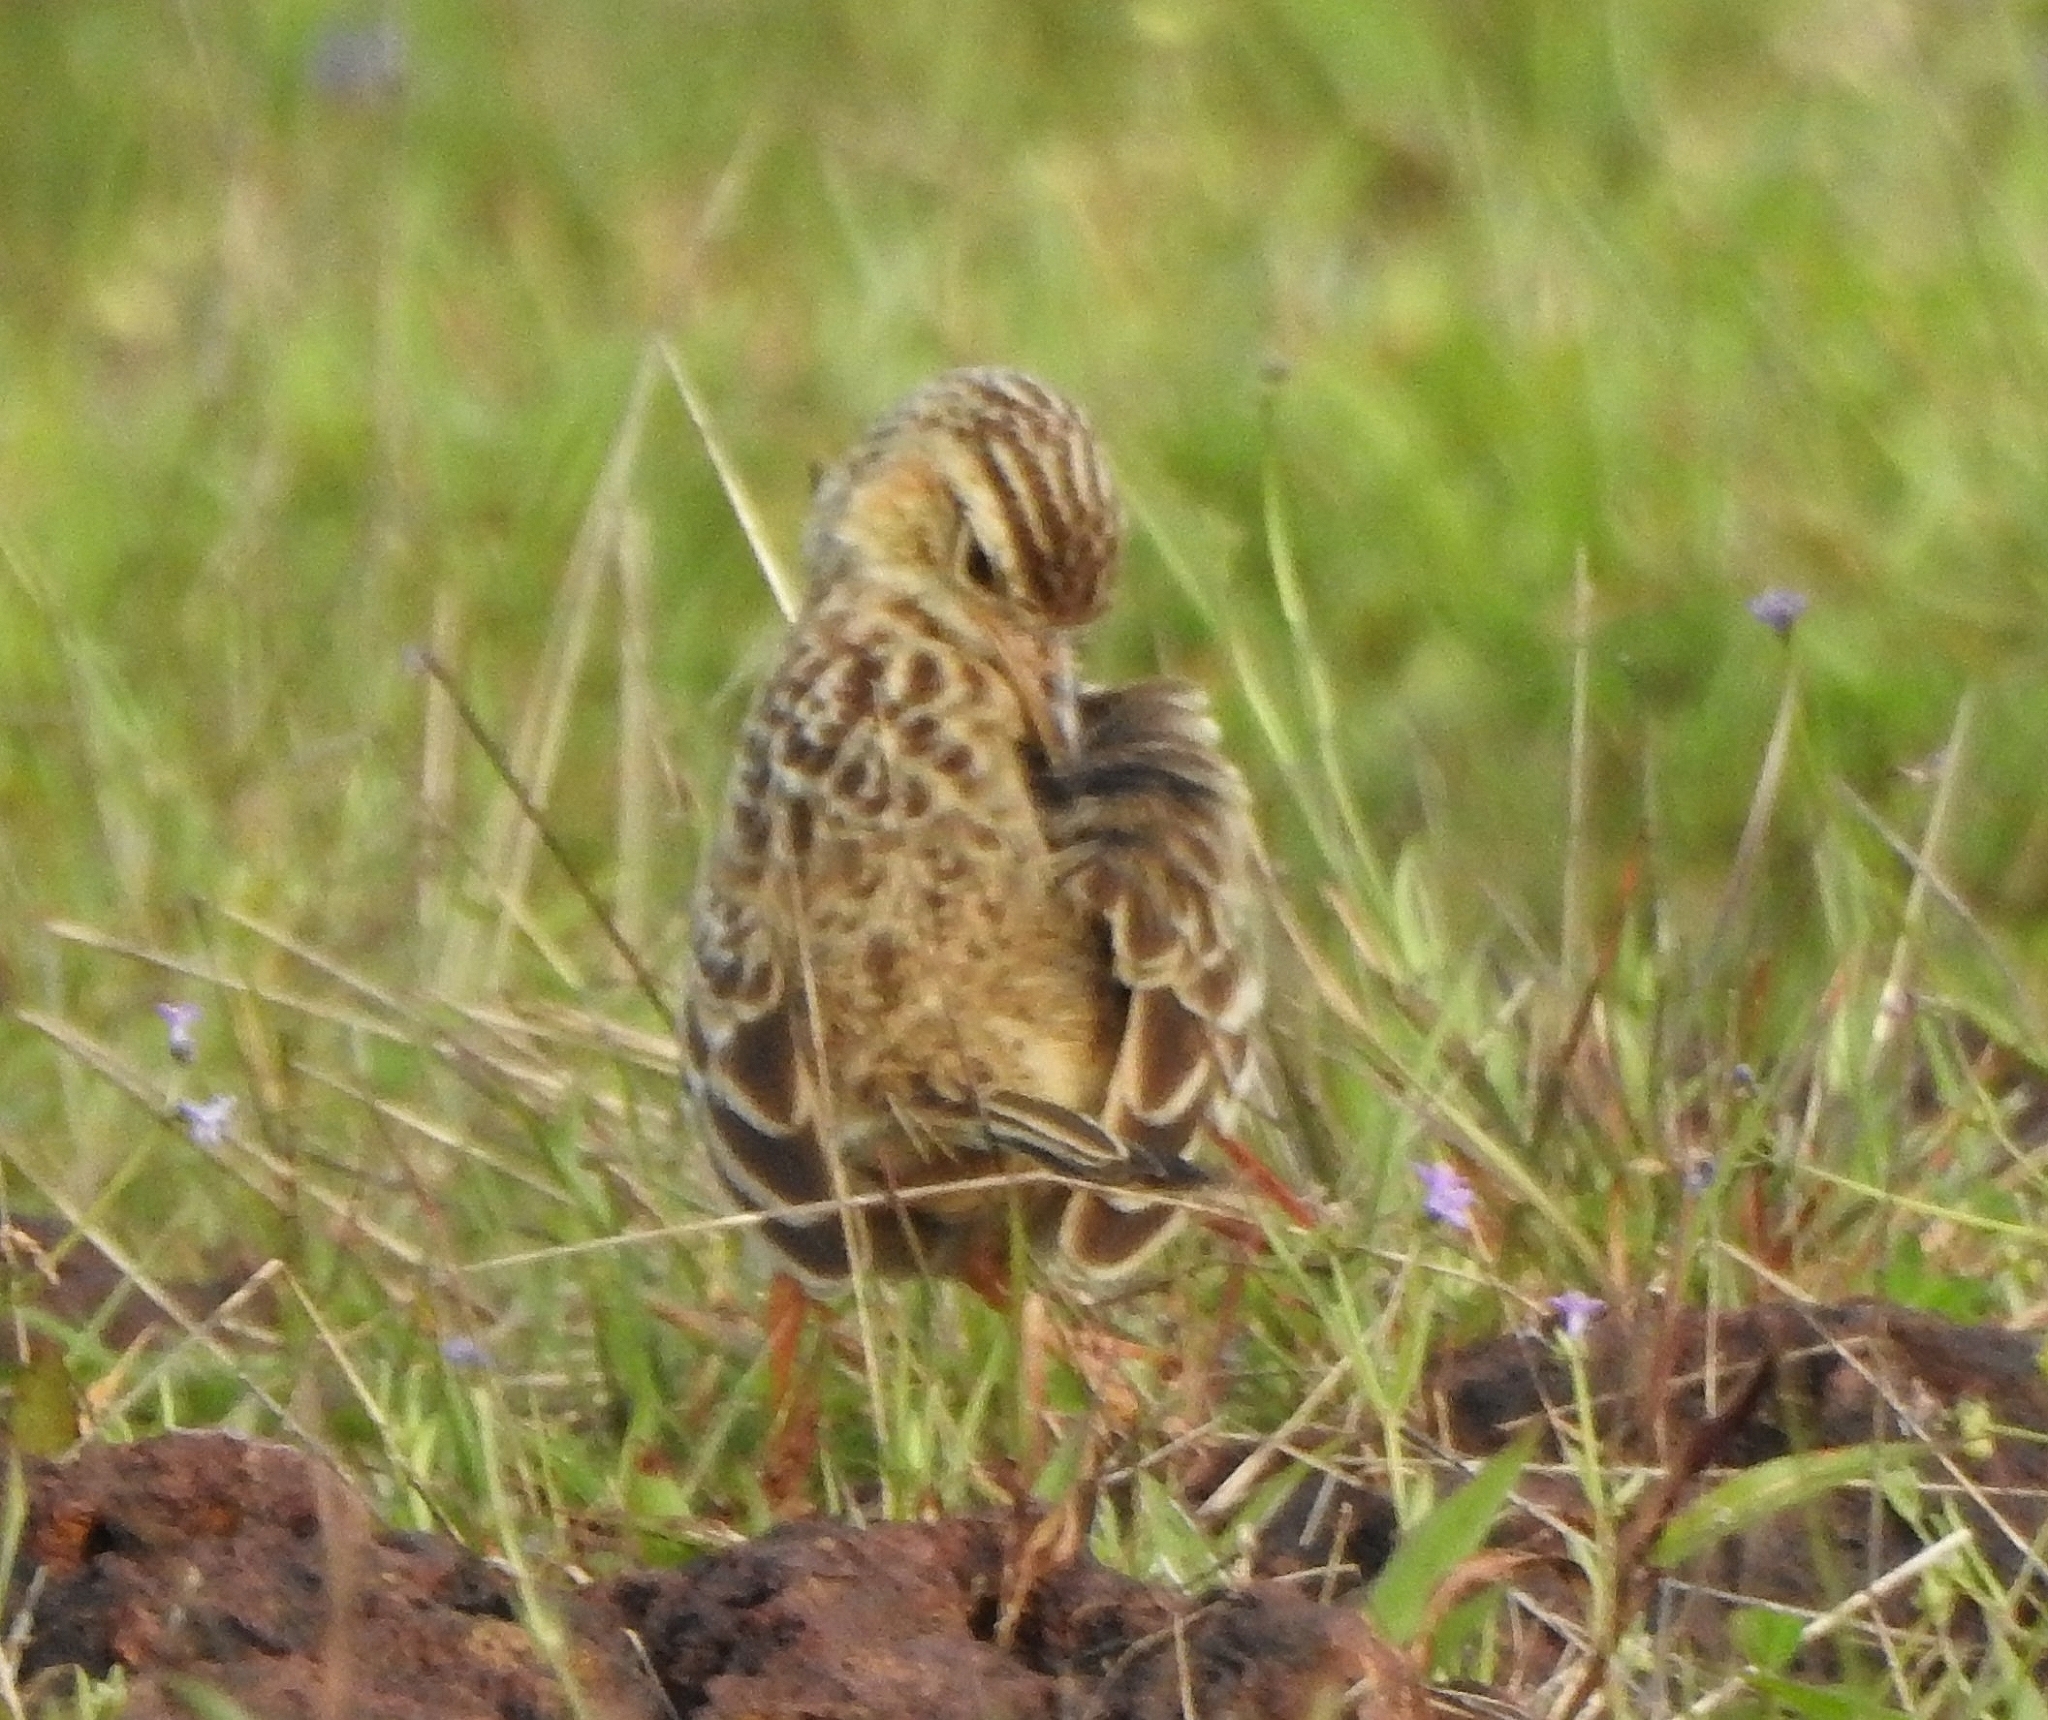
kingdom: Animalia
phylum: Chordata
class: Aves
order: Passeriformes
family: Motacillidae
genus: Anthus
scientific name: Anthus rufulus
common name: Paddyfield pipit
